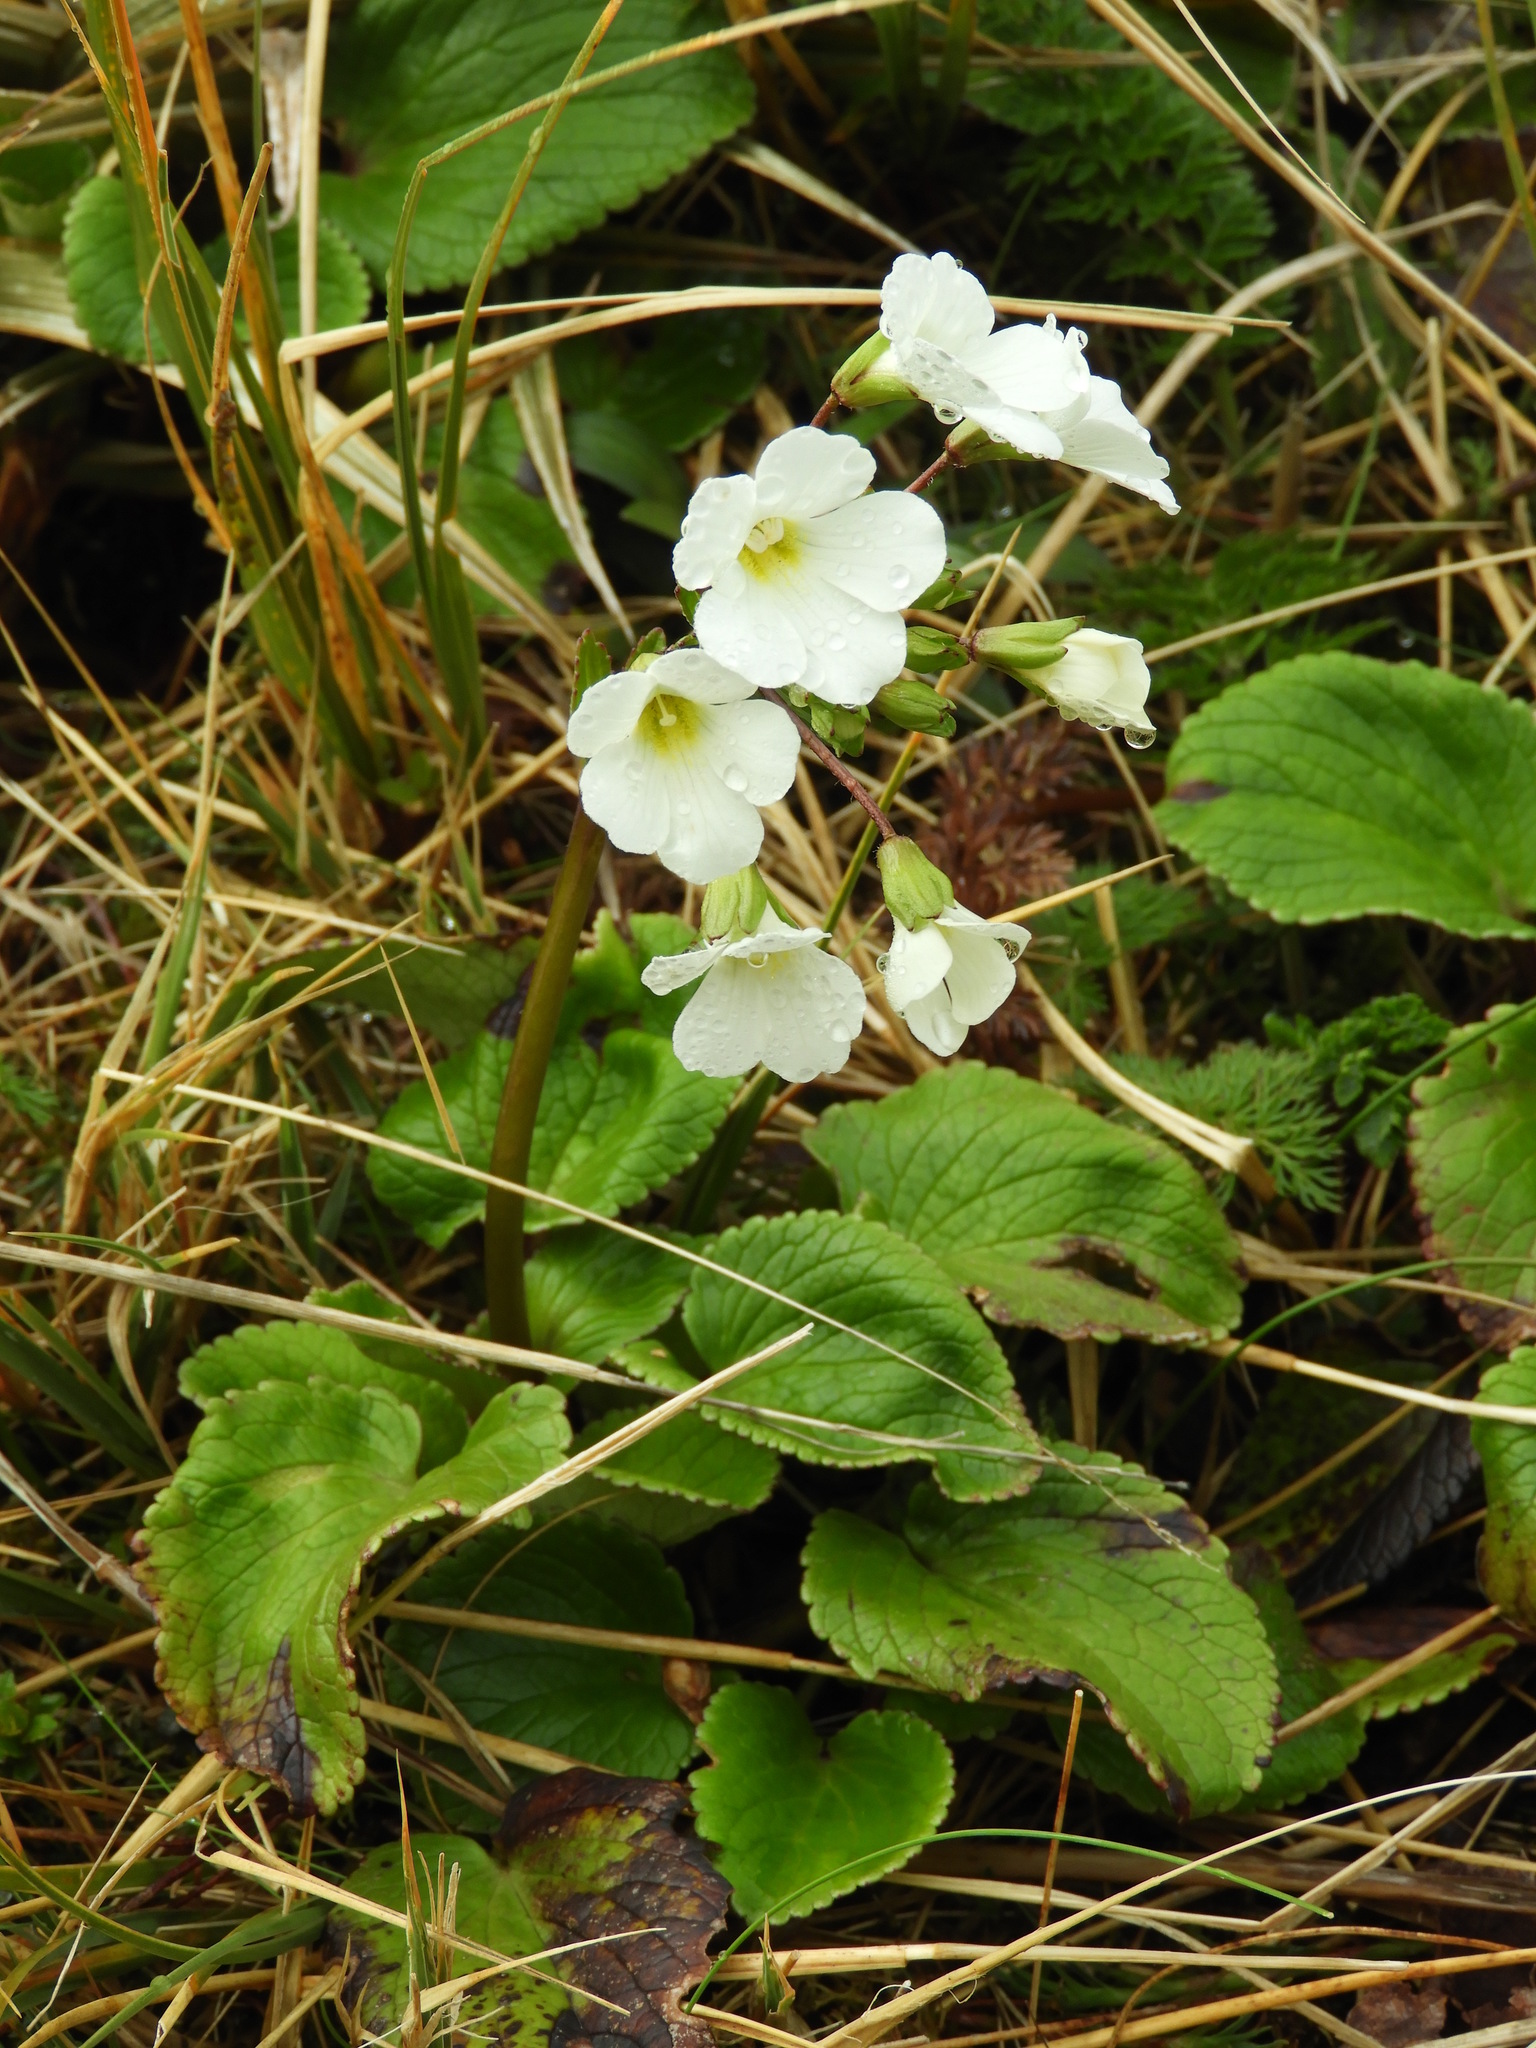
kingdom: Plantae
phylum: Tracheophyta
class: Magnoliopsida
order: Lamiales
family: Plantaginaceae
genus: Ourisia
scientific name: Ourisia macrocarpa
